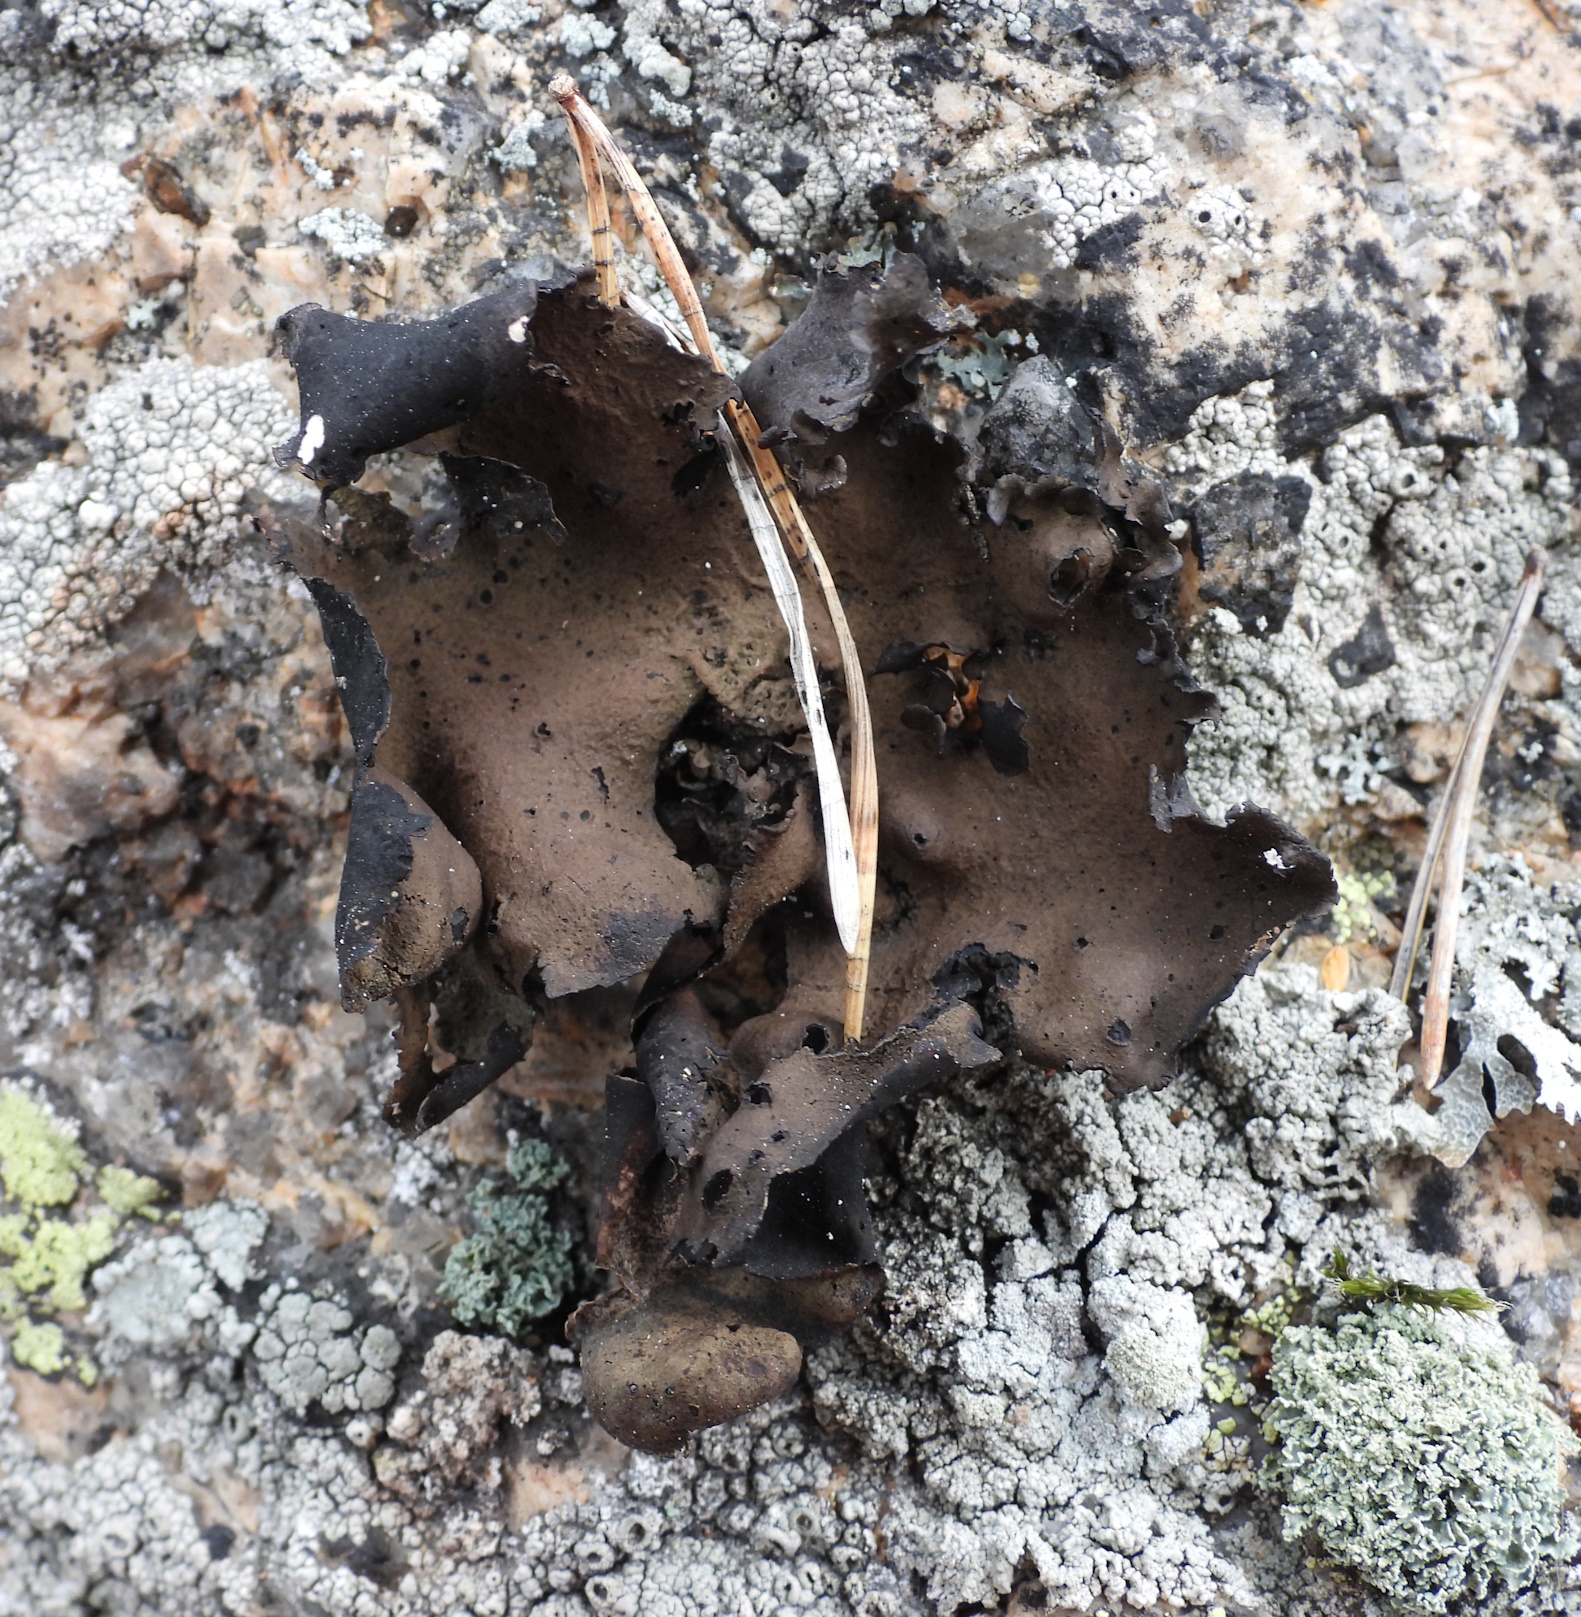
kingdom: Fungi
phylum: Ascomycota
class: Lecanoromycetes
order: Umbilicariales
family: Umbilicariaceae
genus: Umbilicaria
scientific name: Umbilicaria polyphylla
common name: Petalled rocktripe lichen
